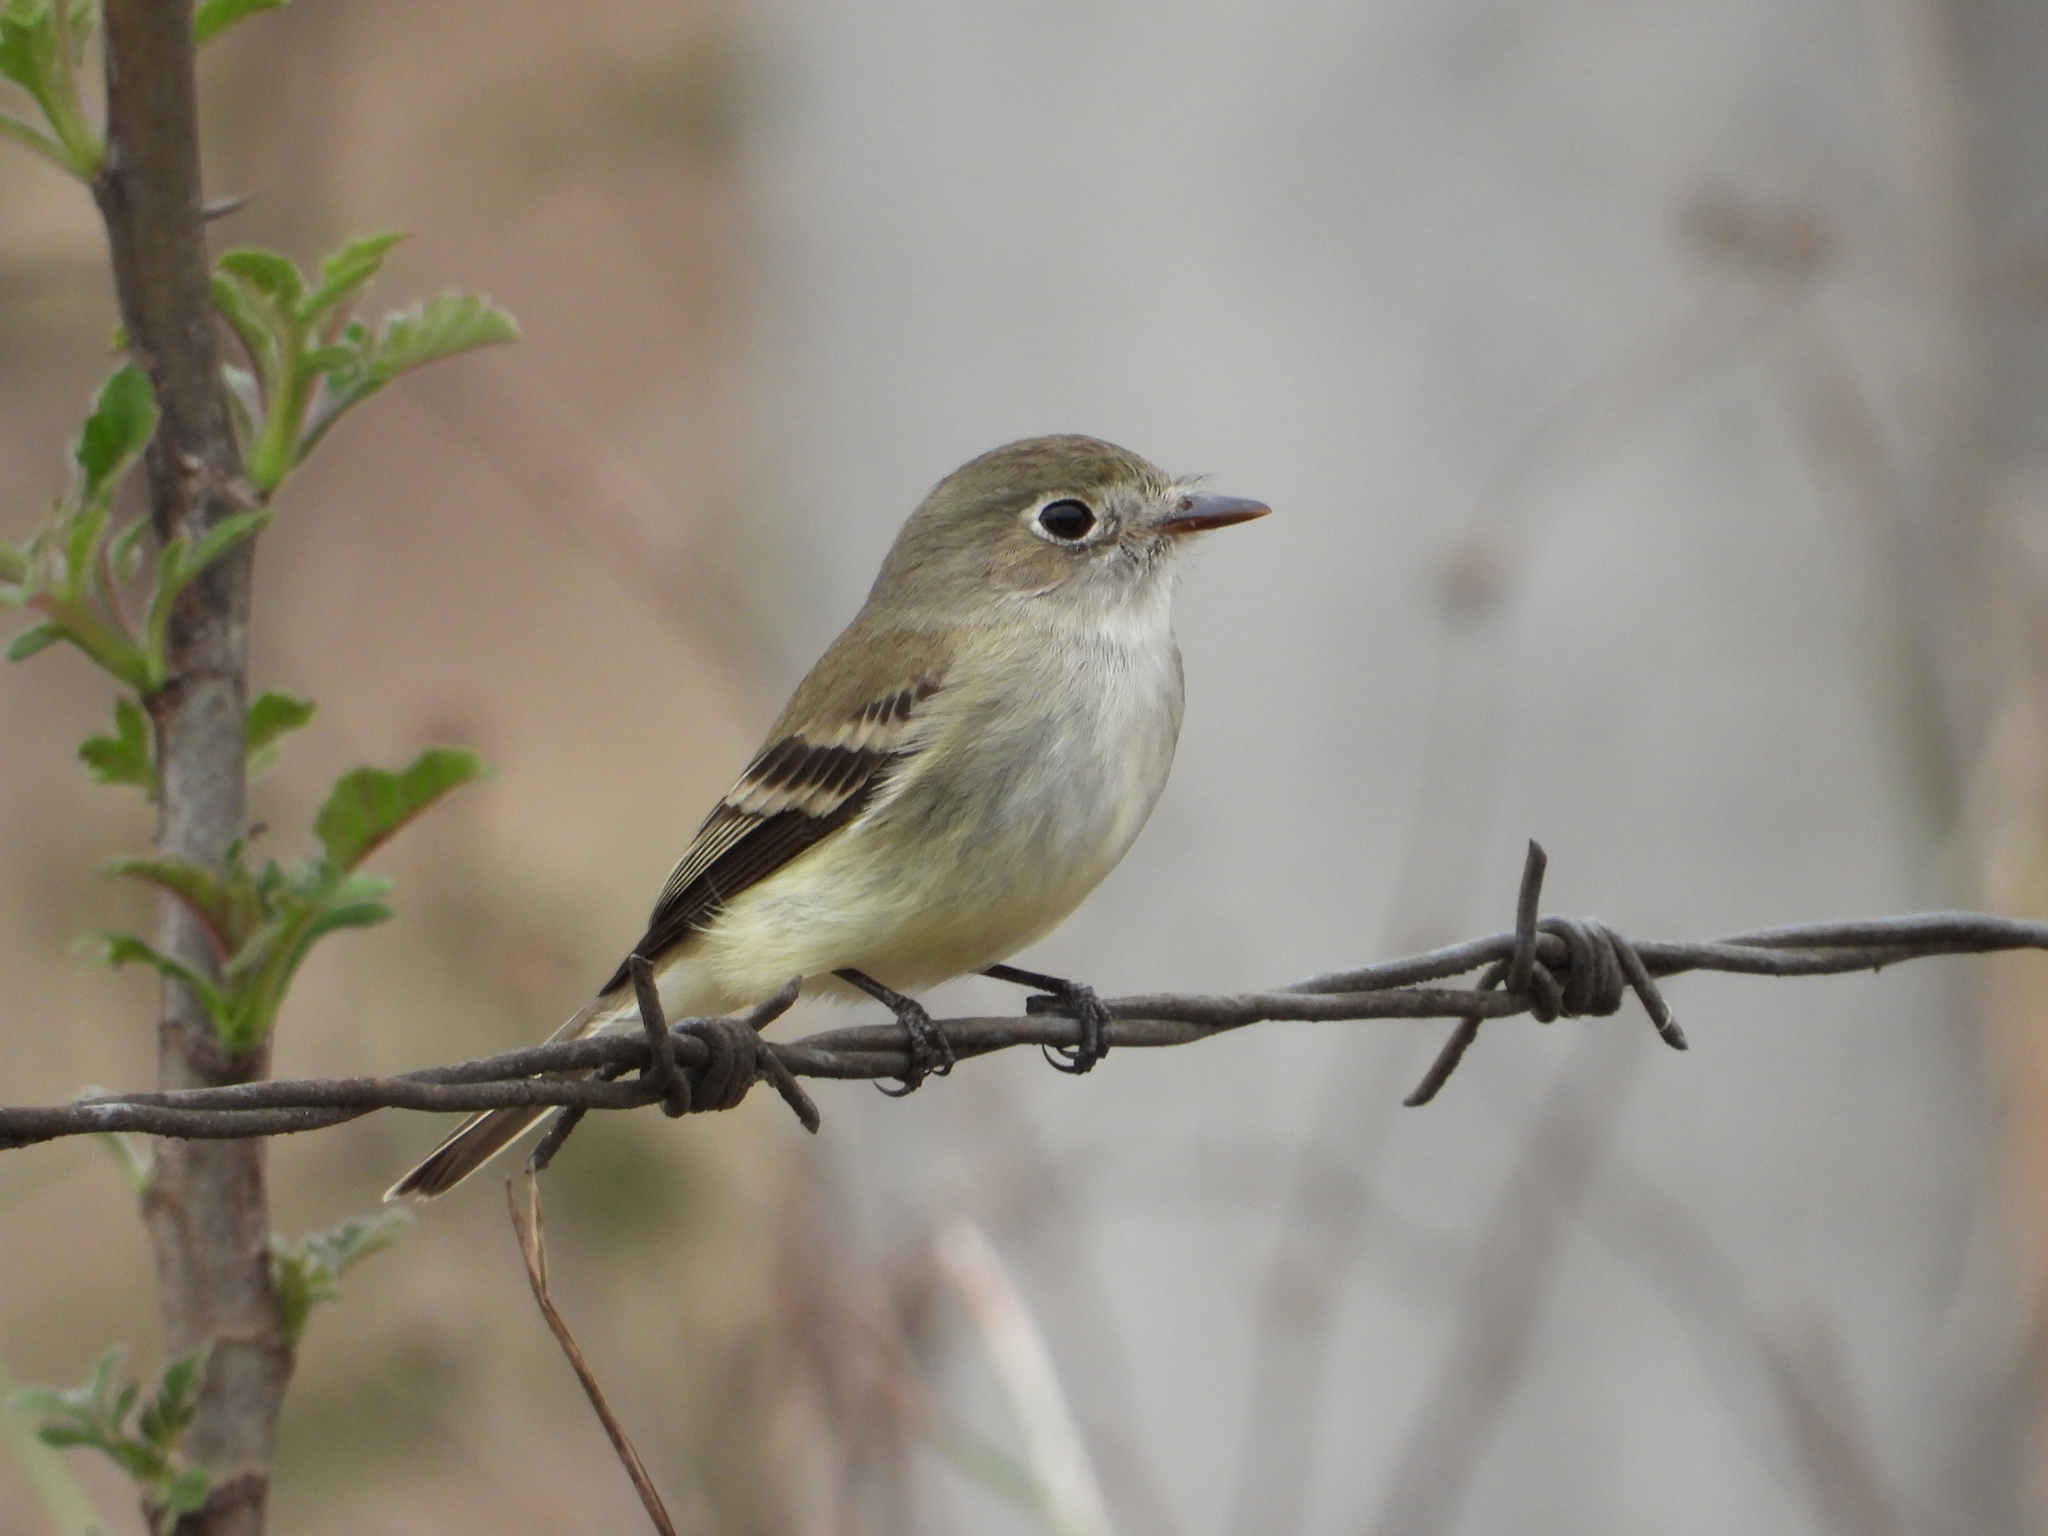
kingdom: Animalia
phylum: Chordata
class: Aves
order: Passeriformes
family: Tyrannidae
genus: Empidonax
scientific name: Empidonax minimus
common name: Least flycatcher
